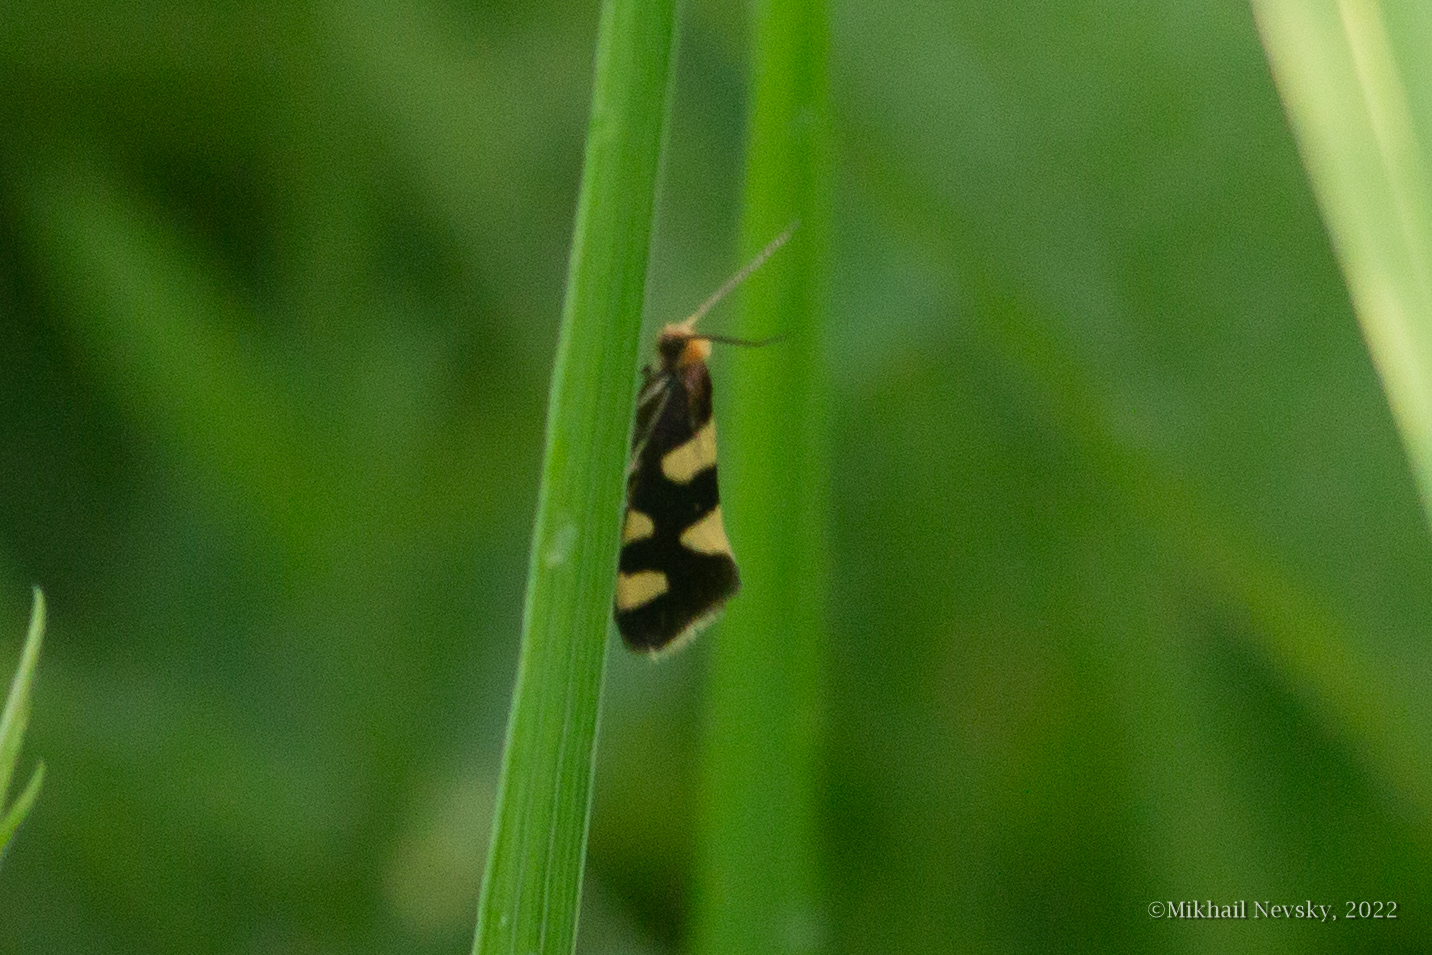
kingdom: Animalia
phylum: Arthropoda
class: Insecta
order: Lepidoptera
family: Incurvariidae
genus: Incurvaria
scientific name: Incurvaria rupella
